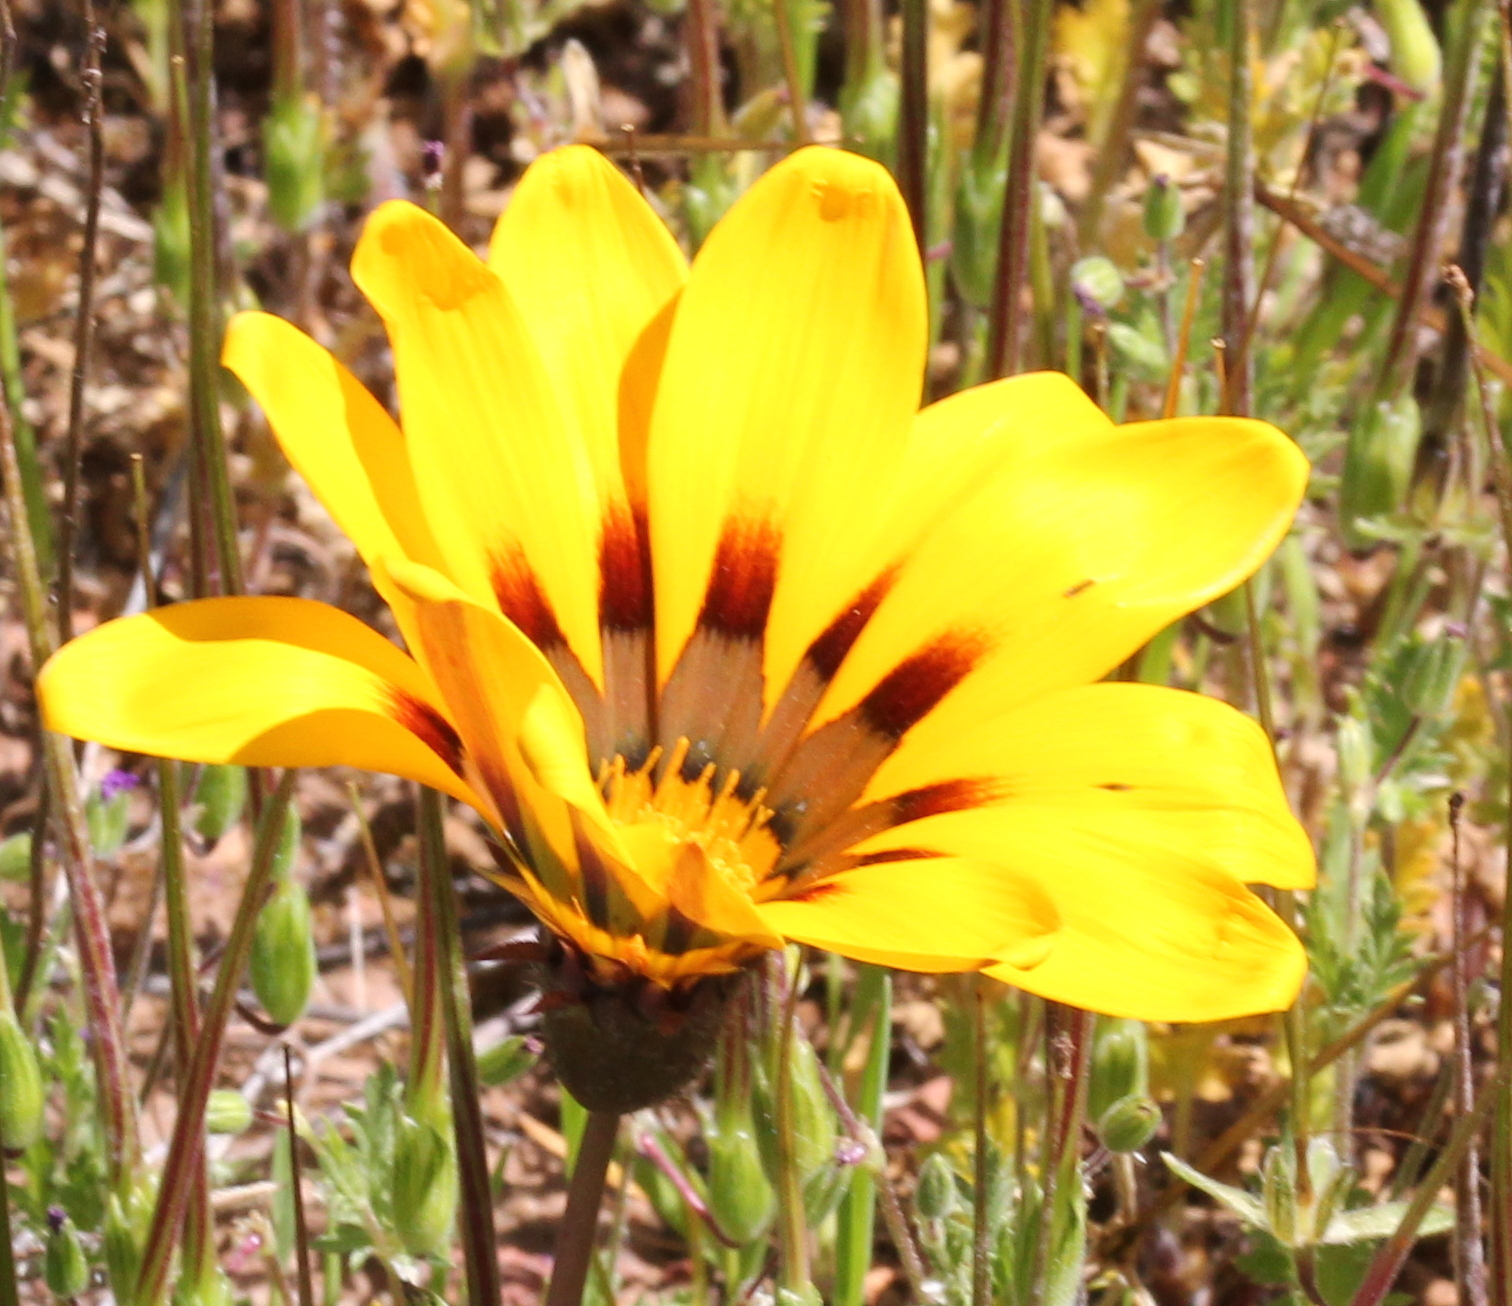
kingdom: Plantae
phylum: Tracheophyta
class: Magnoliopsida
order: Asterales
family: Asteraceae
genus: Gazania
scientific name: Gazania linearis
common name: Treasureflower
